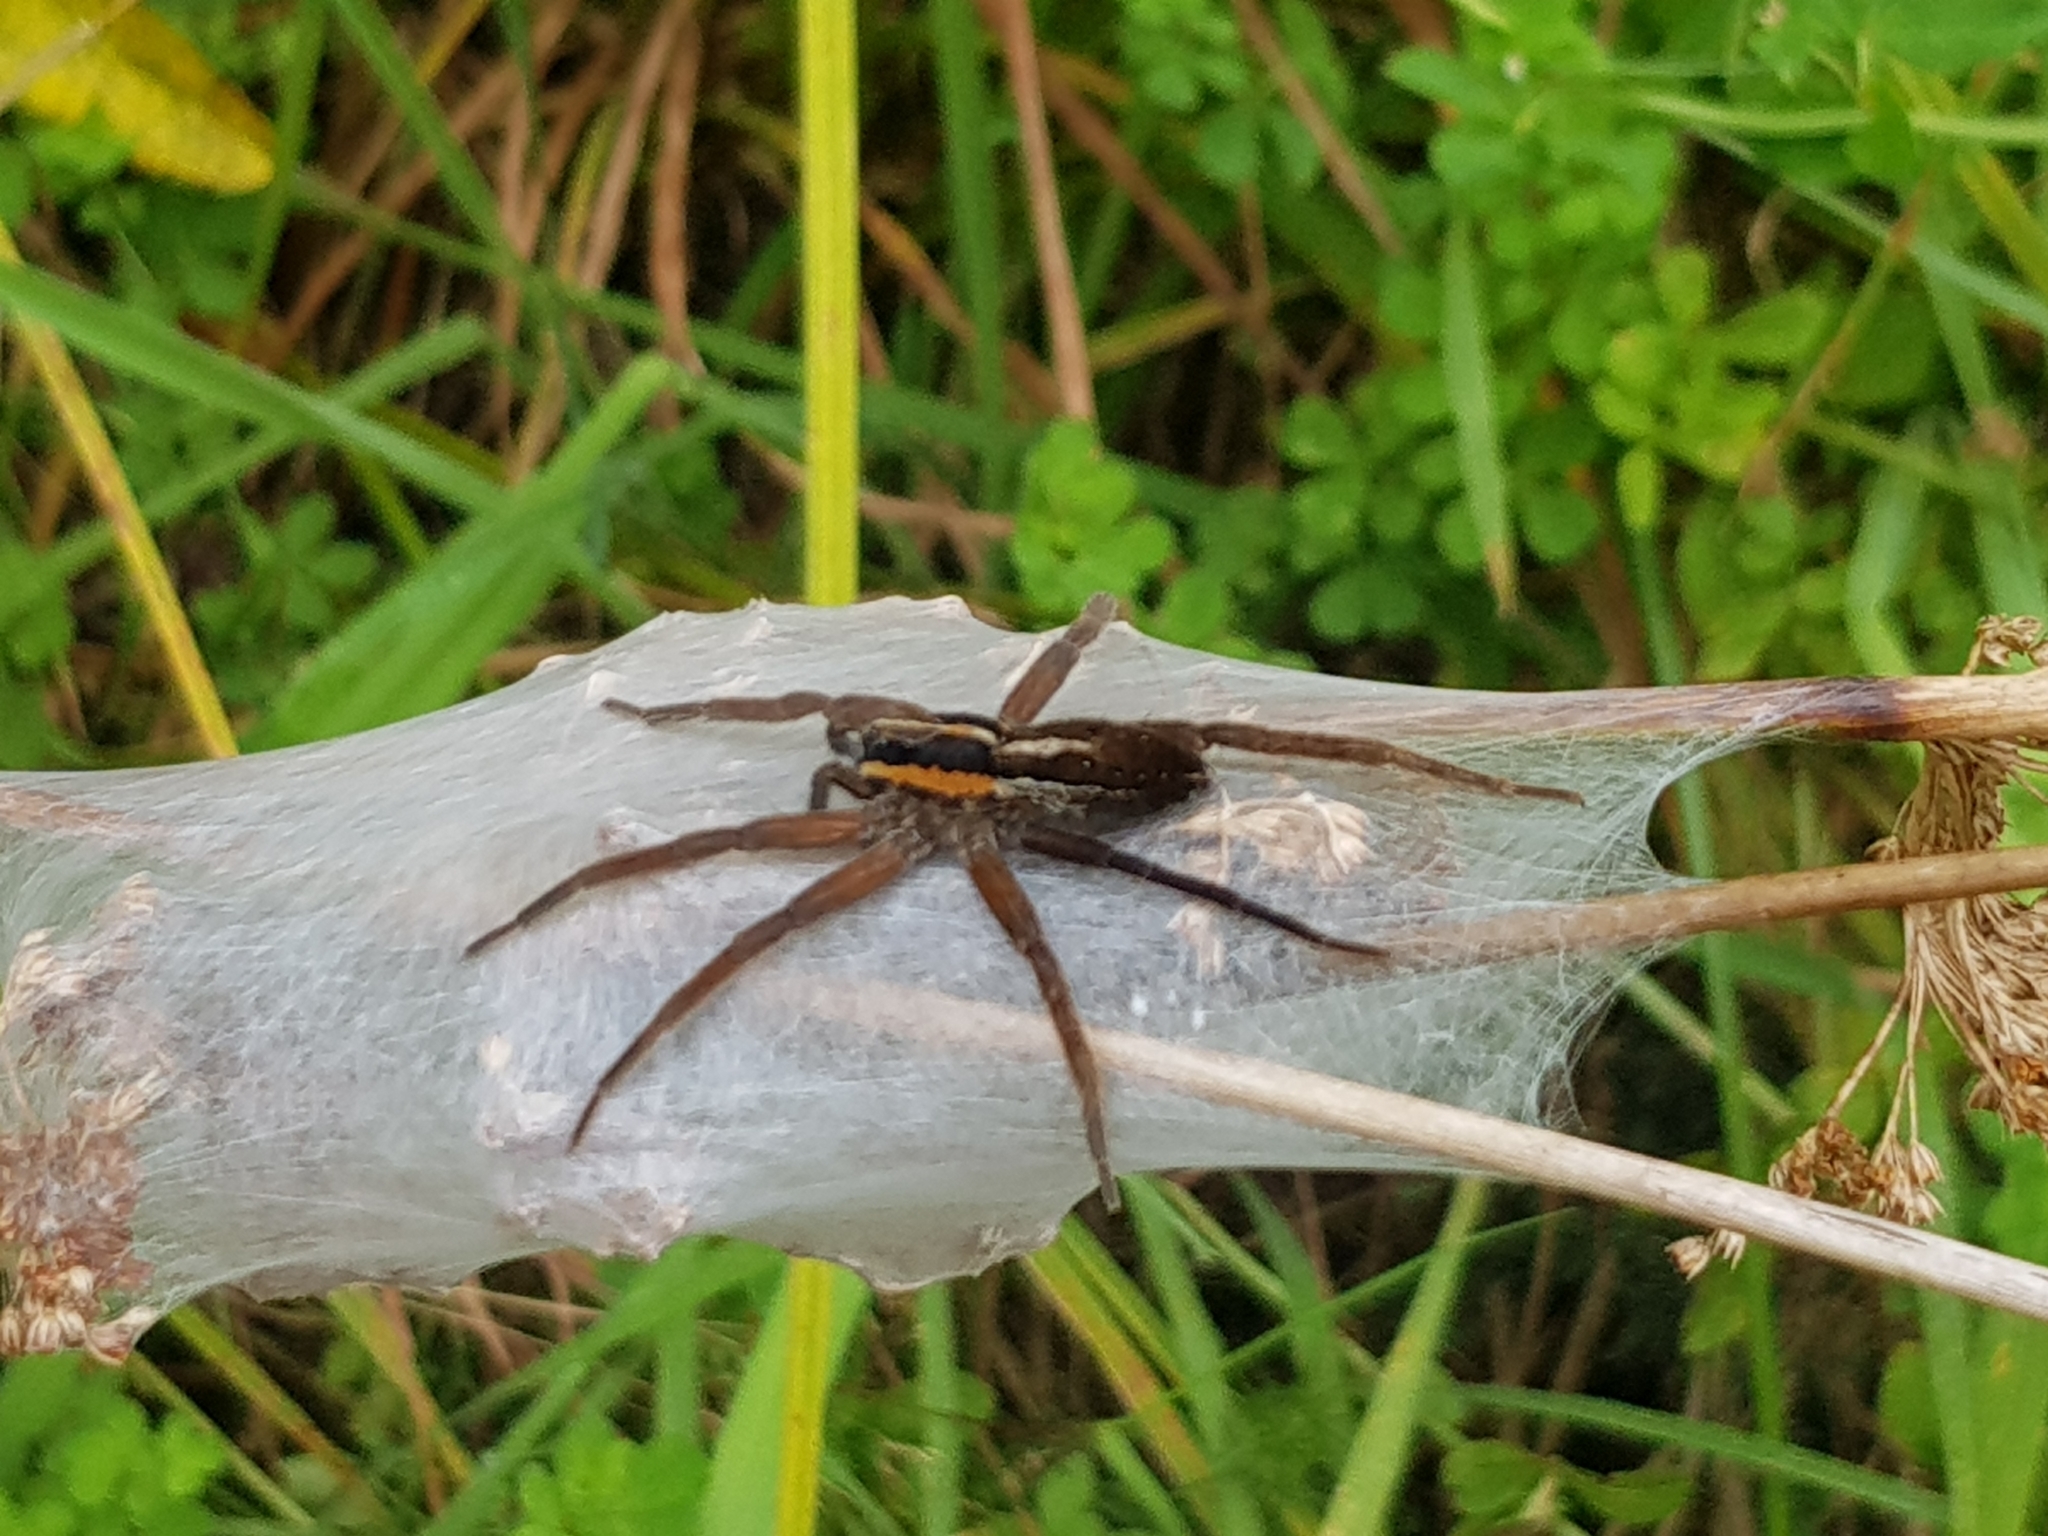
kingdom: Animalia
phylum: Arthropoda
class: Arachnida
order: Araneae
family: Pisauridae
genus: Dolomedes
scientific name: Dolomedes minor
